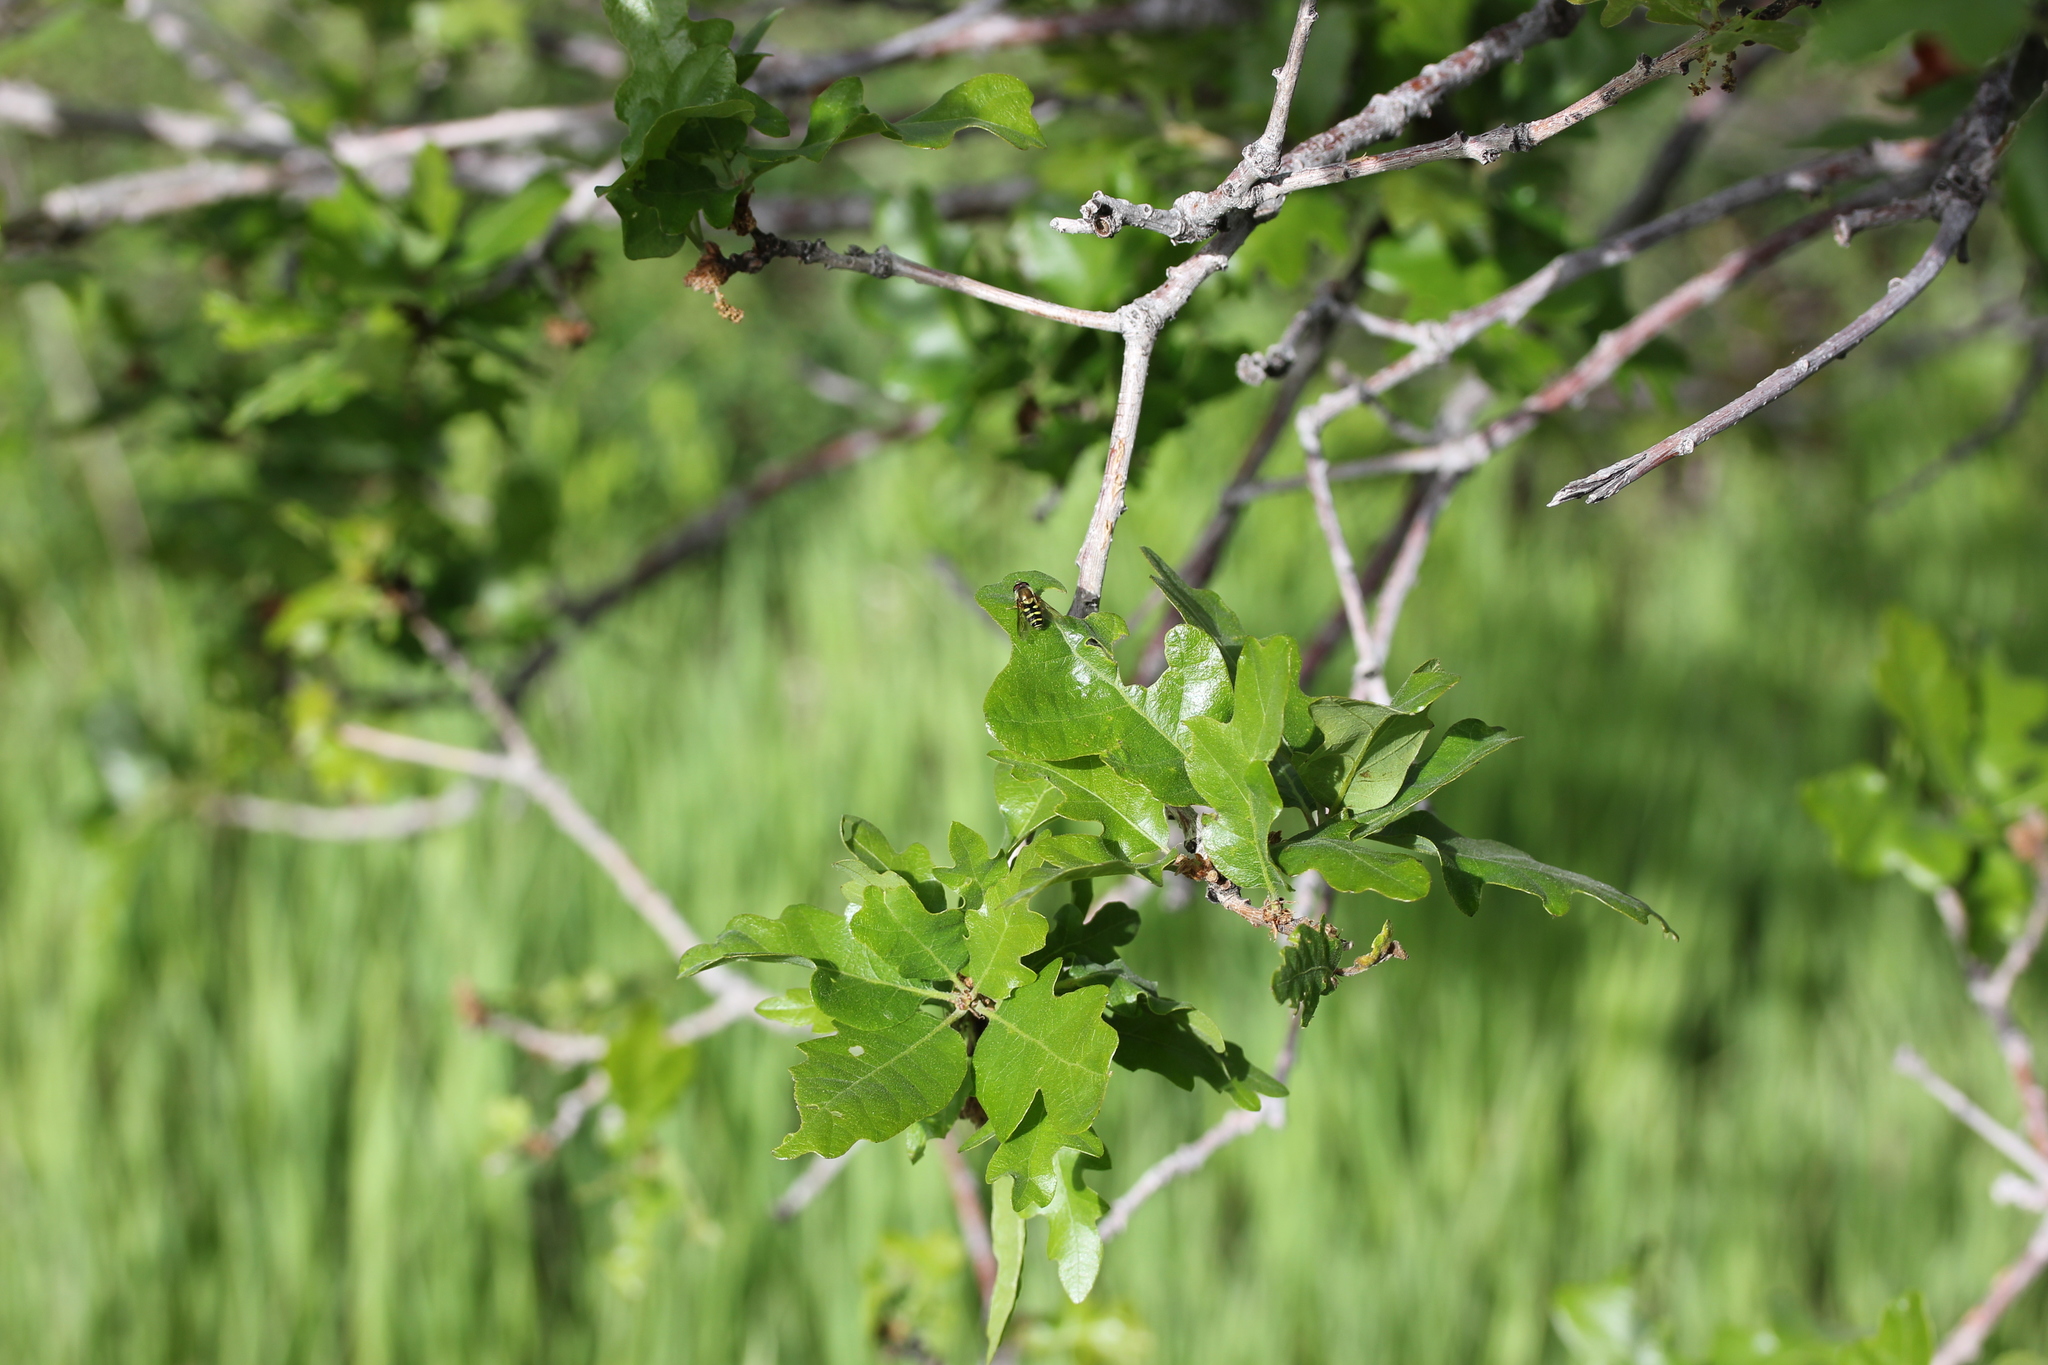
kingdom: Plantae
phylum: Tracheophyta
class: Magnoliopsida
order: Fagales
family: Fagaceae
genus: Quercus
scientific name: Quercus gambelii
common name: Gambel oak
